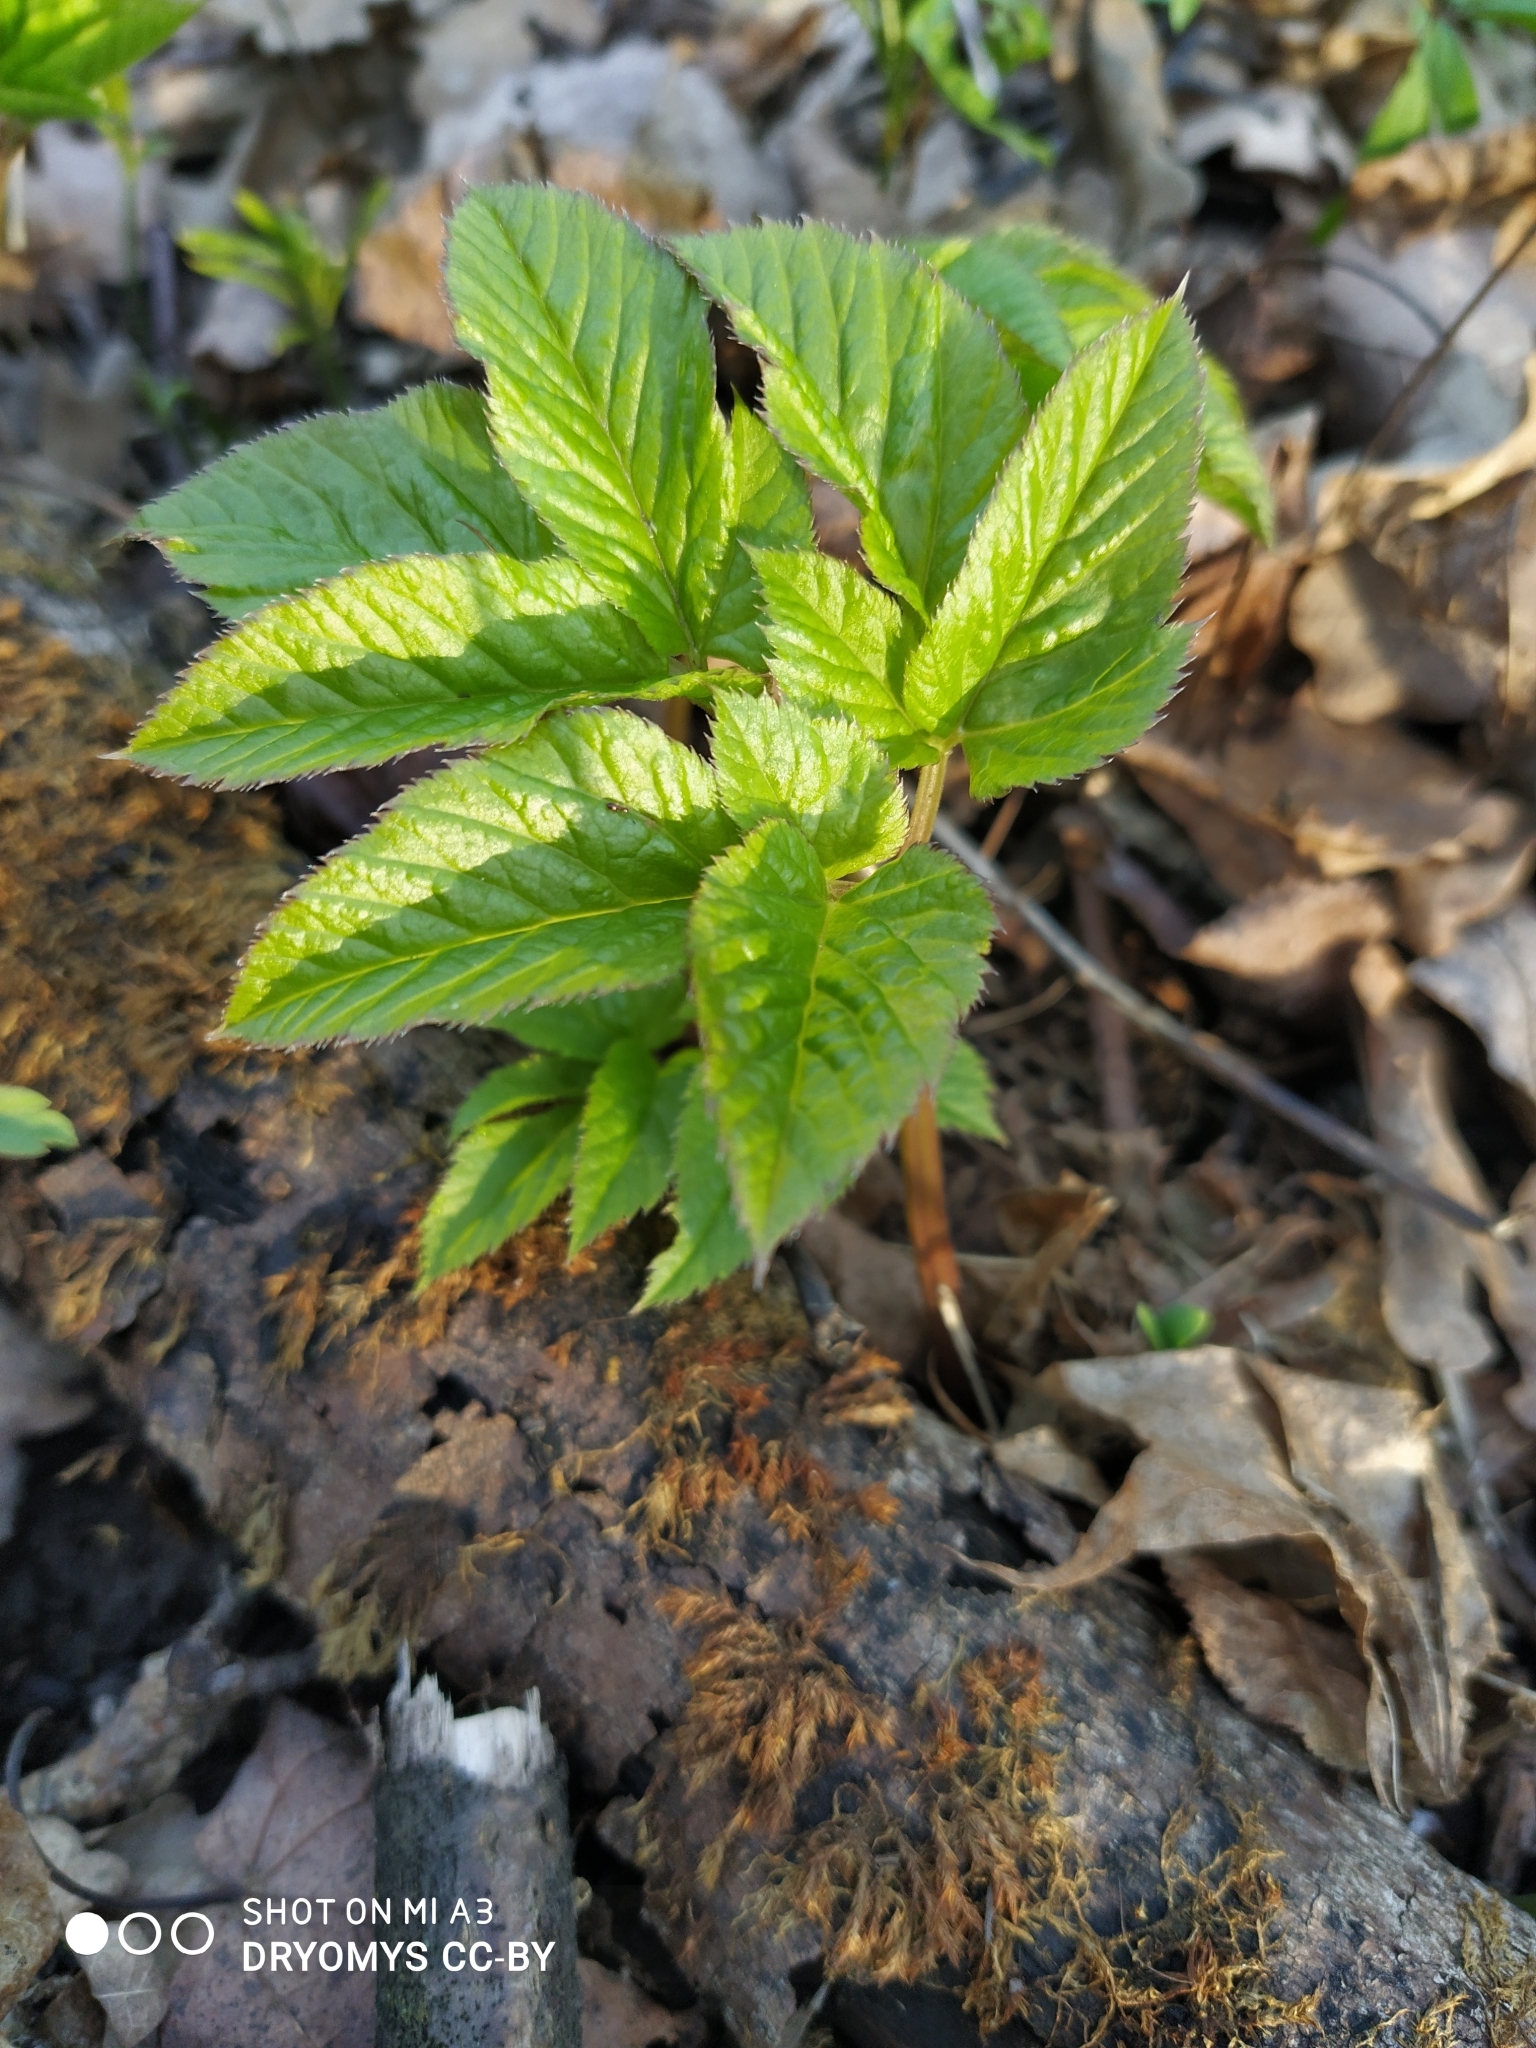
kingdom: Plantae
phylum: Tracheophyta
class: Magnoliopsida
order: Apiales
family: Apiaceae
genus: Aegopodium
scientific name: Aegopodium podagraria
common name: Ground-elder
